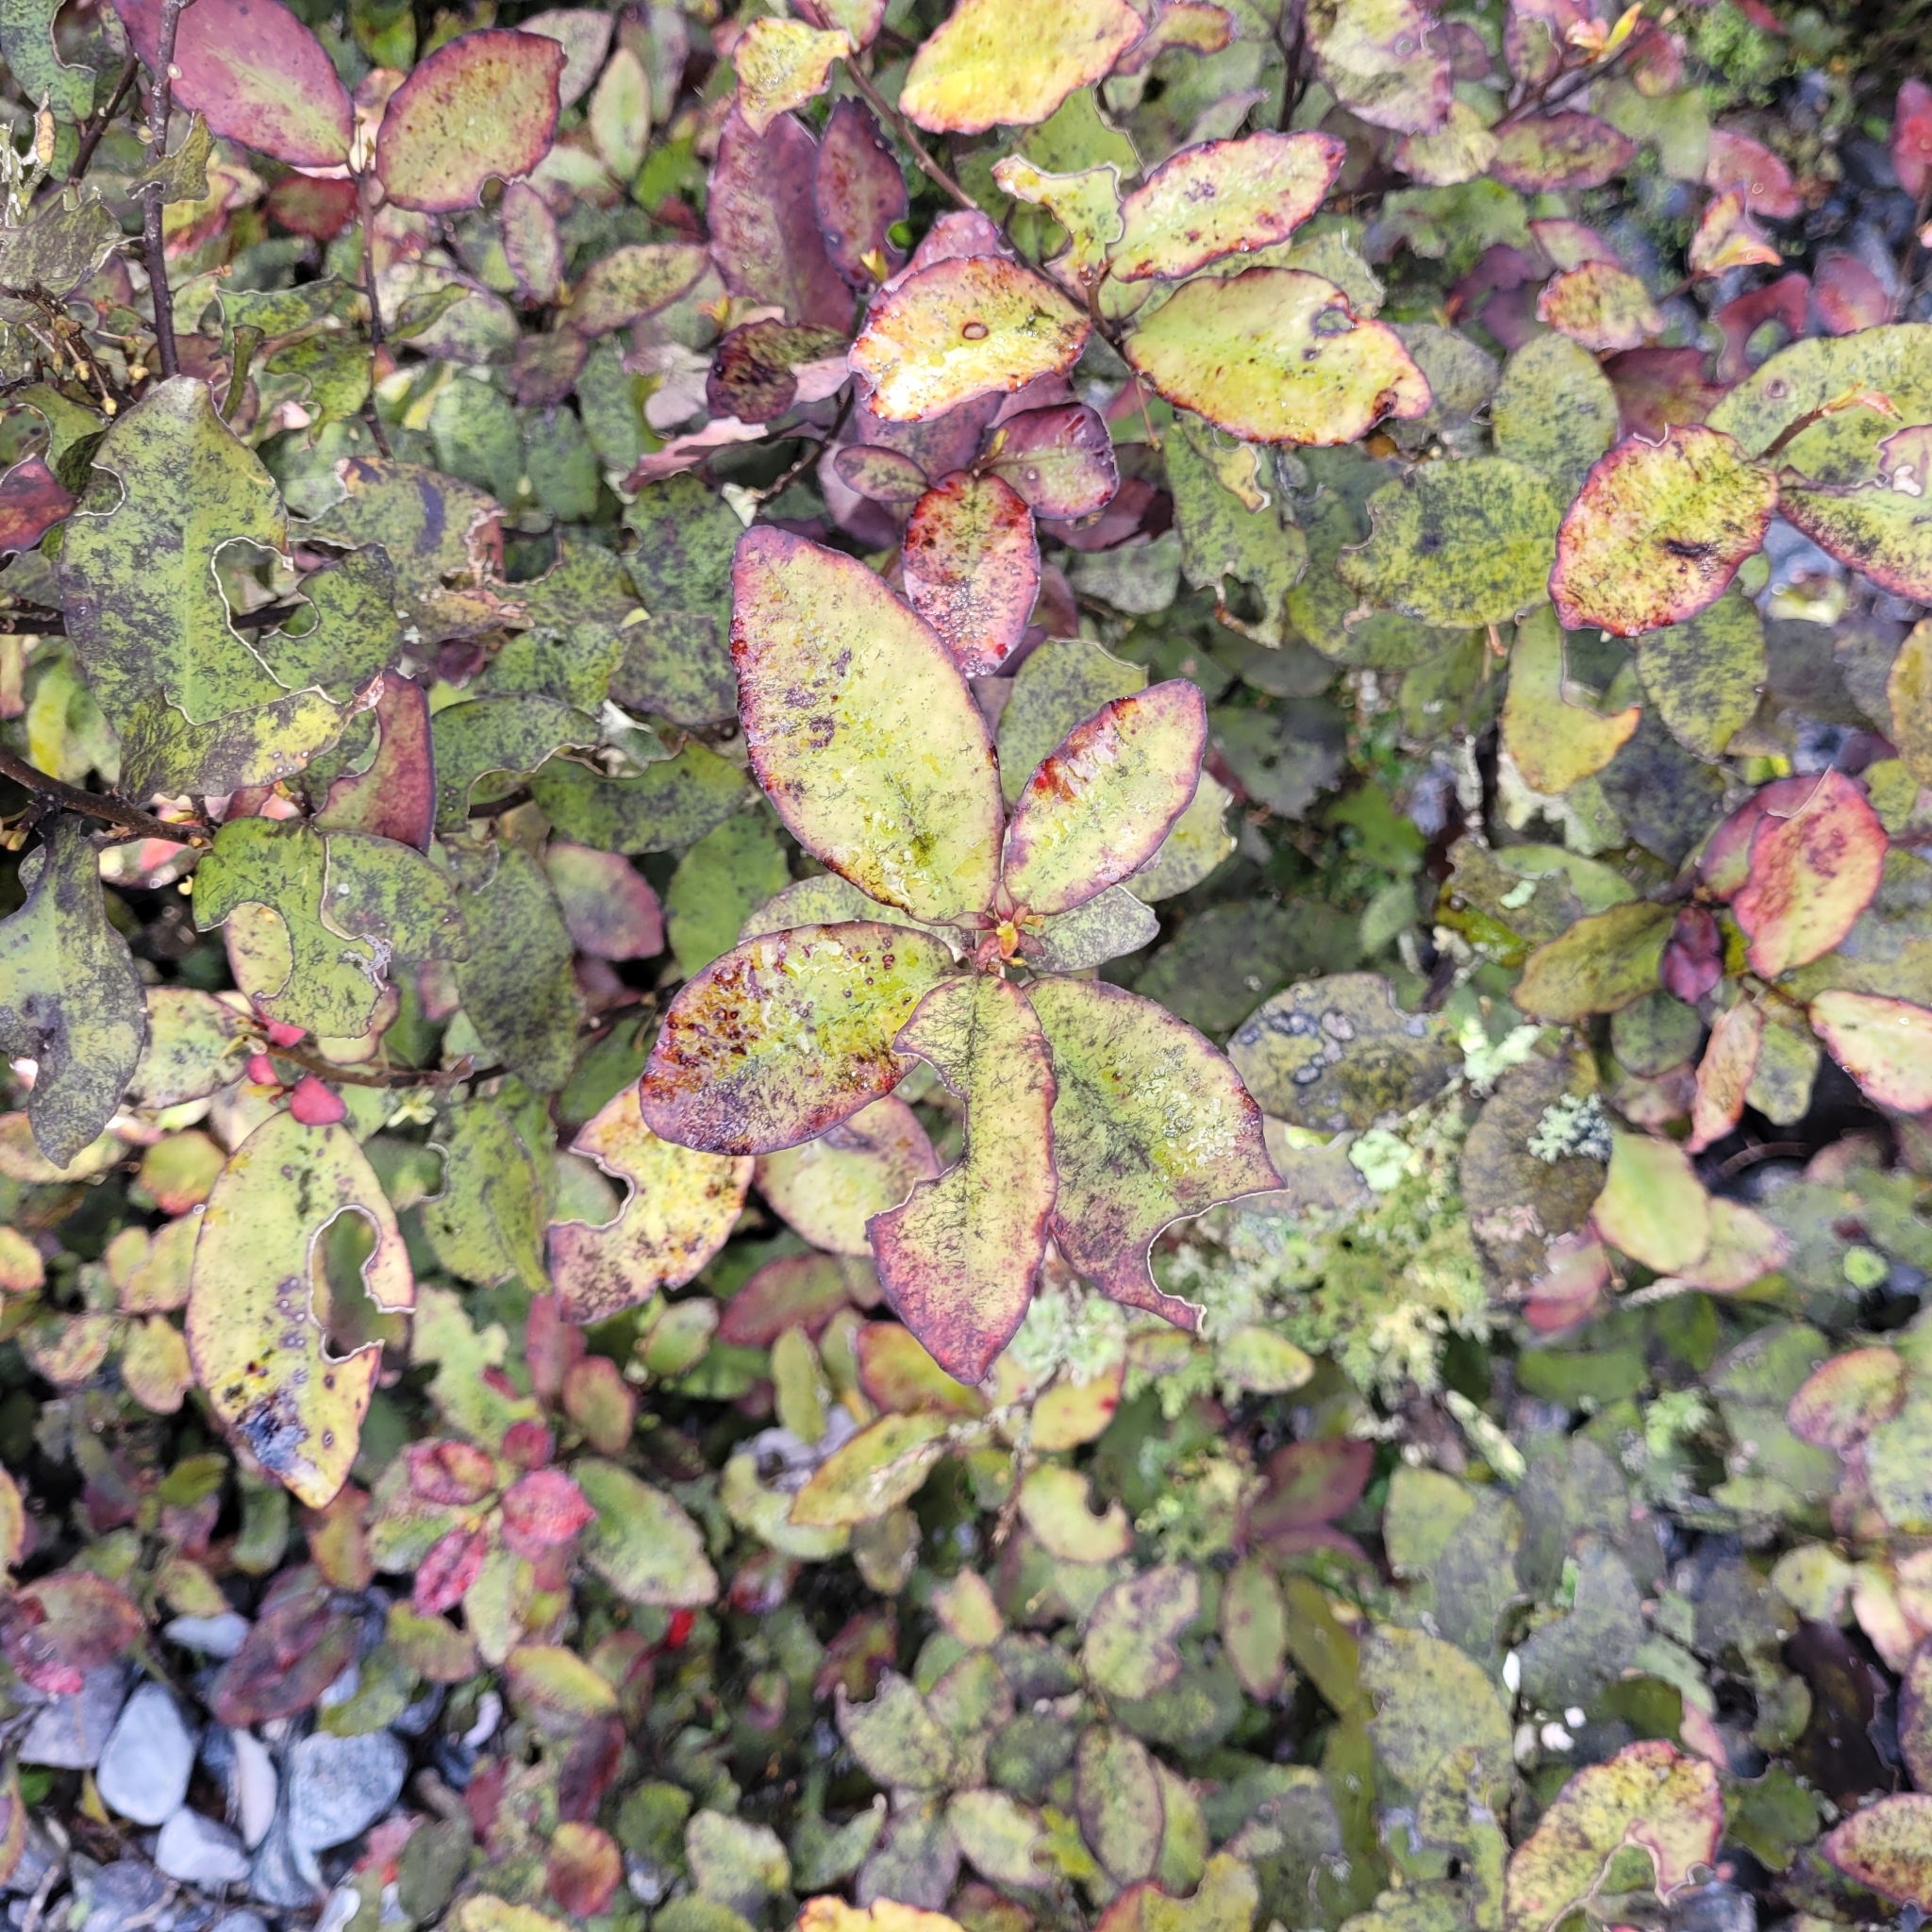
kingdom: Plantae
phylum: Tracheophyta
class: Magnoliopsida
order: Canellales
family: Winteraceae
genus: Pseudowintera
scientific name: Pseudowintera colorata
